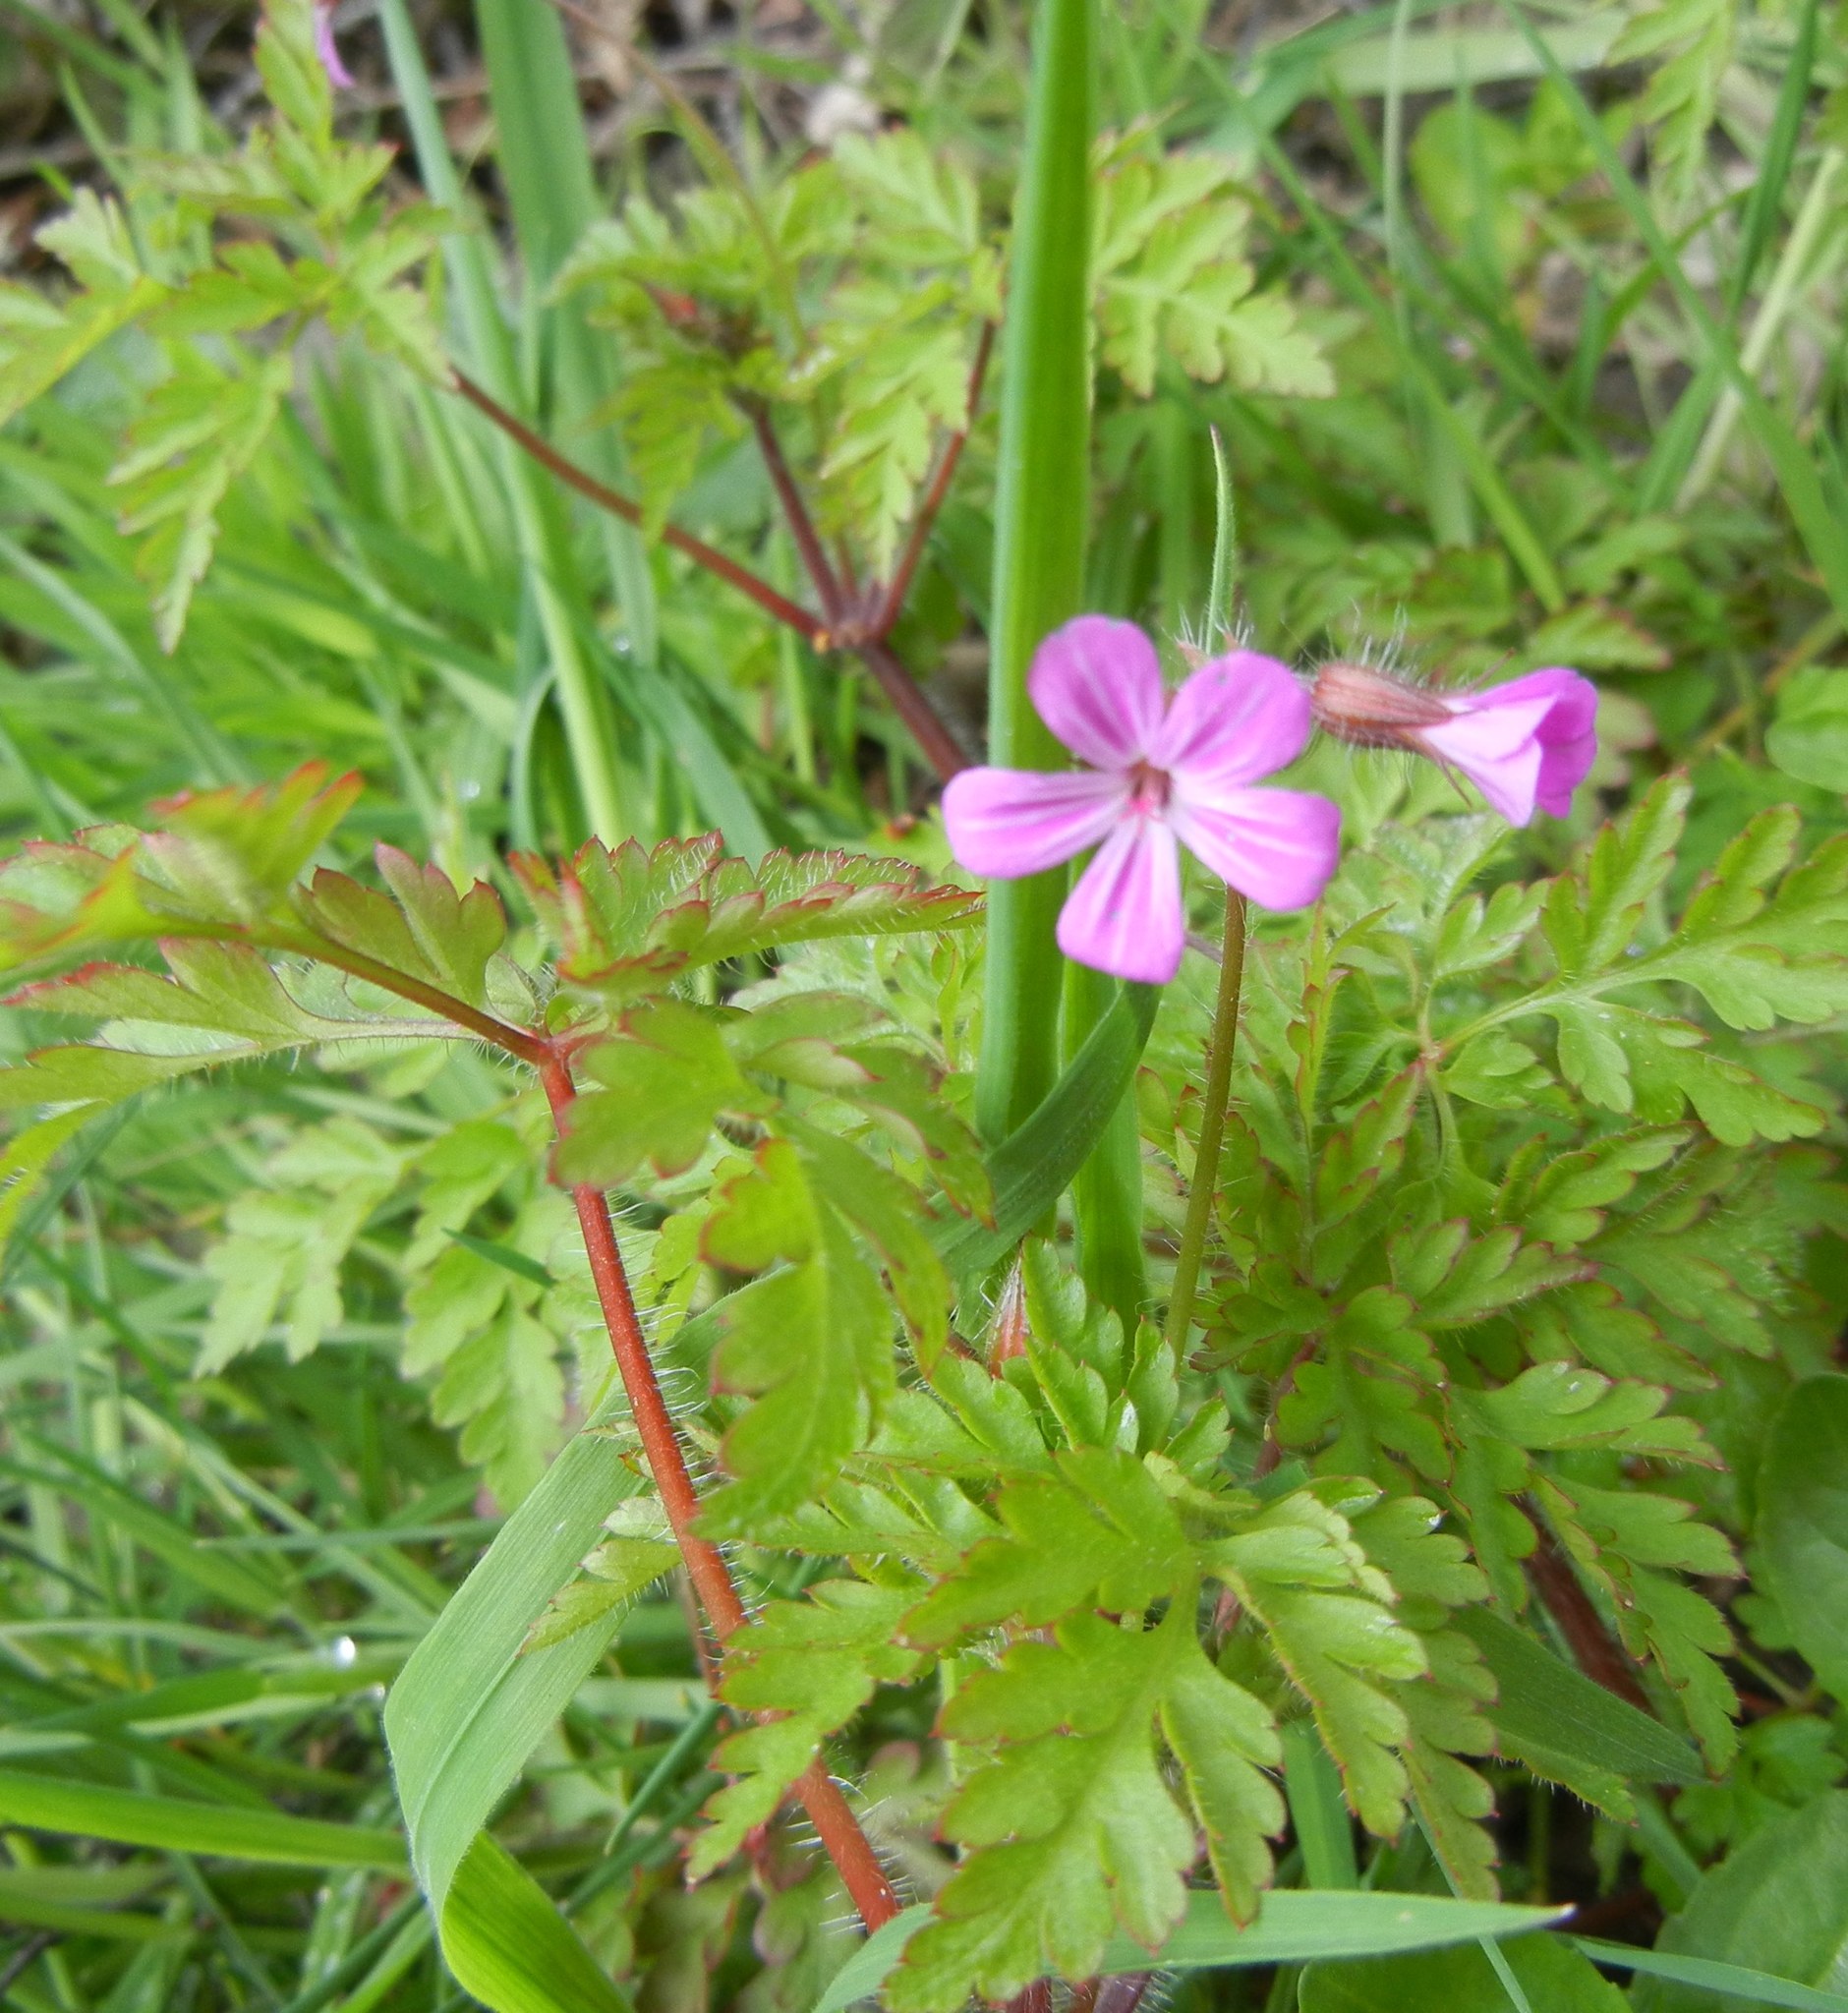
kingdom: Plantae
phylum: Tracheophyta
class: Magnoliopsida
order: Geraniales
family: Geraniaceae
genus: Geranium
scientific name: Geranium robertianum
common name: Herb-robert
